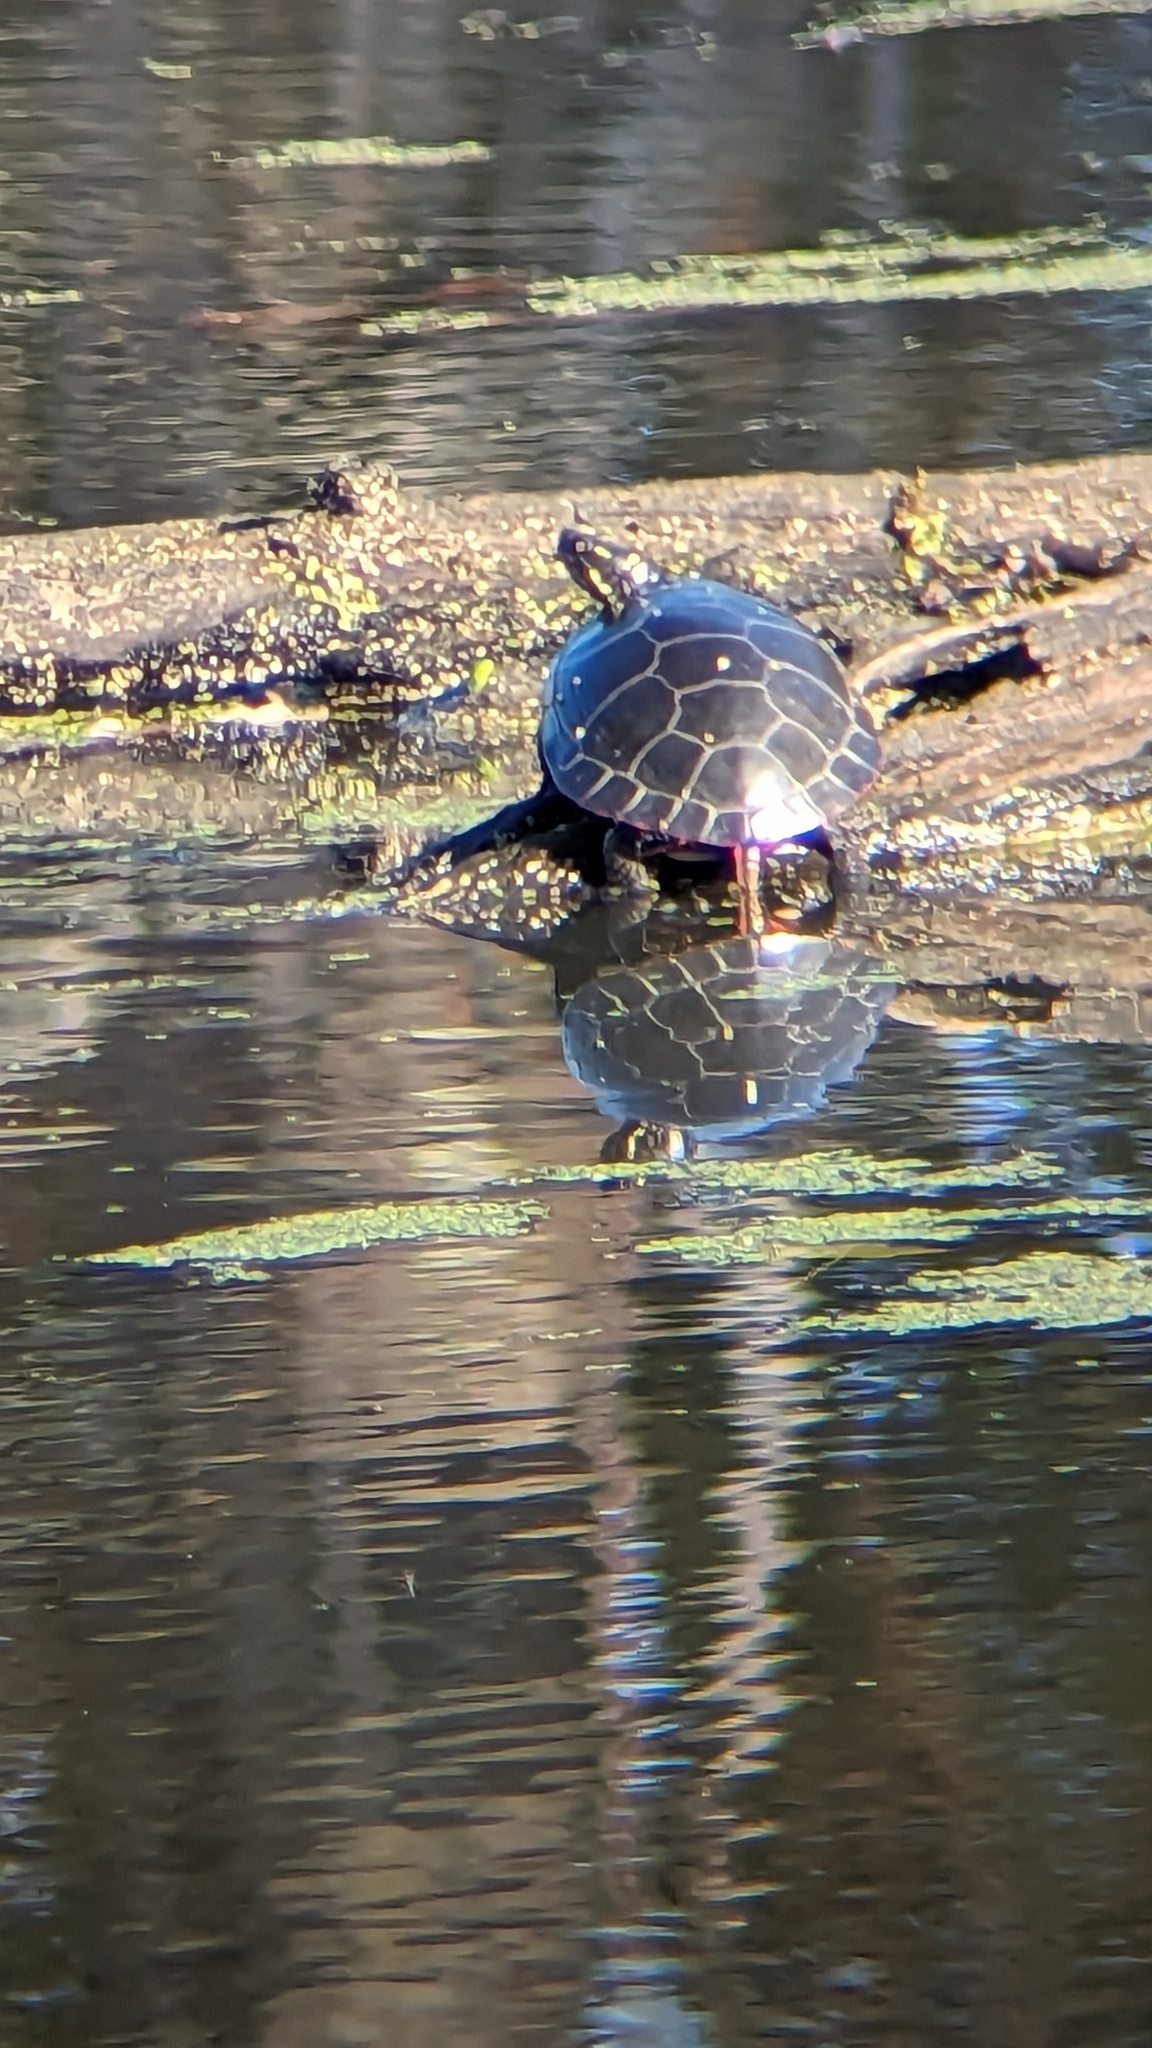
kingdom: Animalia
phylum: Chordata
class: Testudines
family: Emydidae
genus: Chrysemys
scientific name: Chrysemys picta
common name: Painted turtle
